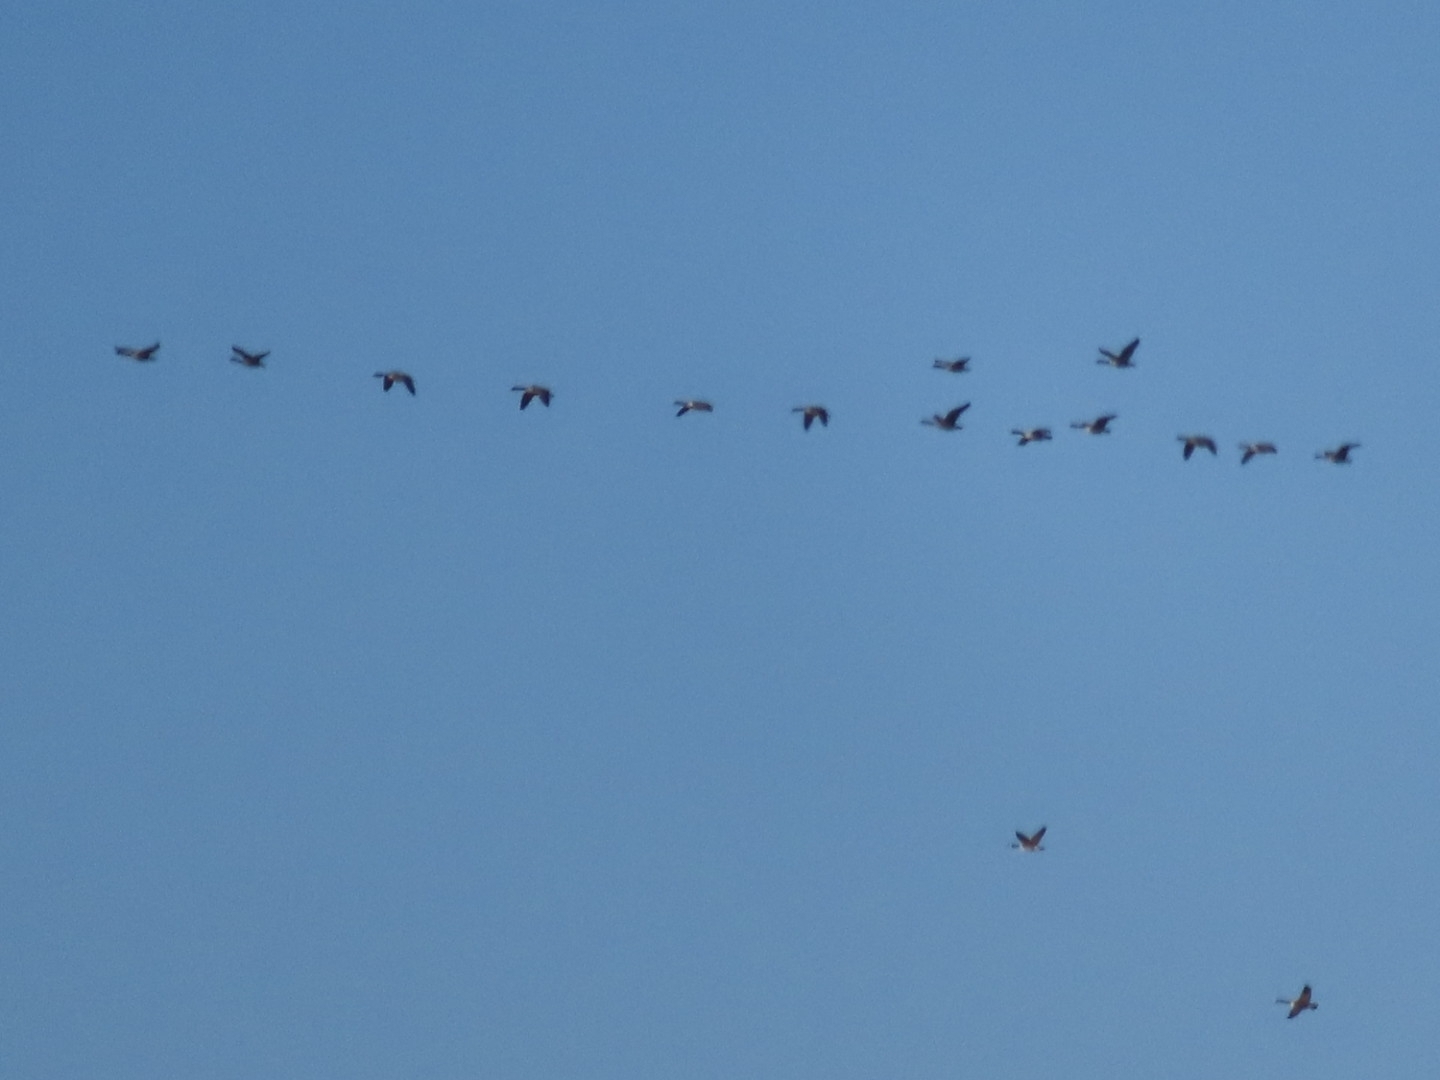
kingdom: Animalia
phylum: Chordata
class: Aves
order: Anseriformes
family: Anatidae
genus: Branta
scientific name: Branta canadensis
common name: Canada goose
